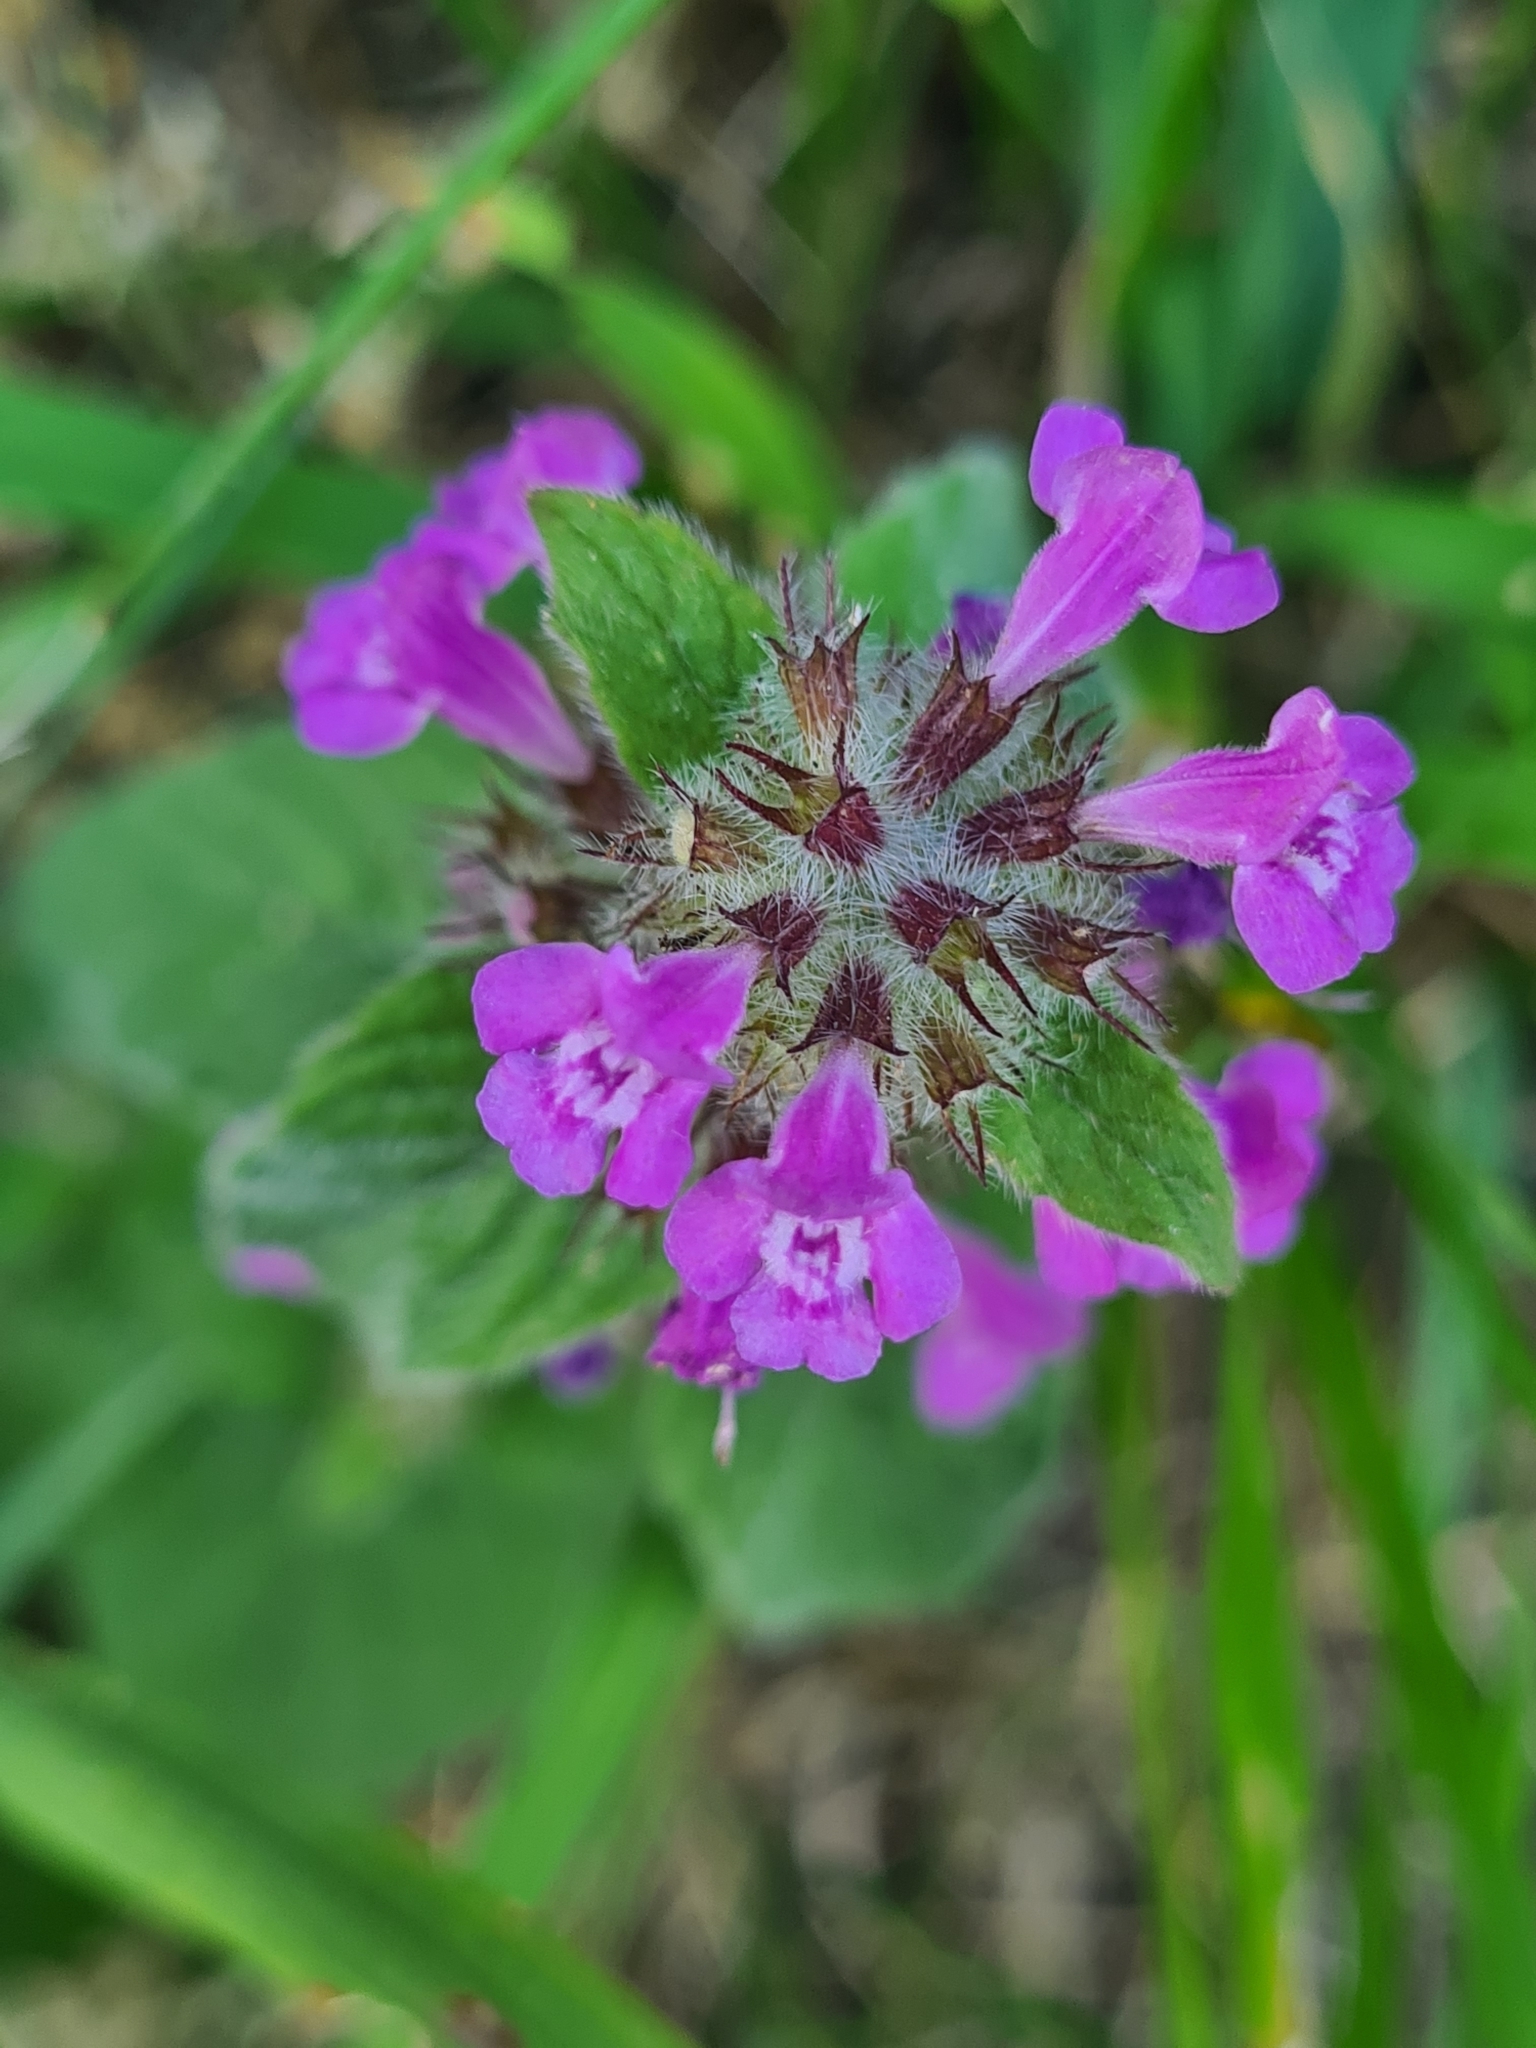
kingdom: Plantae
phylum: Tracheophyta
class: Magnoliopsida
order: Lamiales
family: Lamiaceae
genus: Clinopodium
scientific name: Clinopodium vulgare
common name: Wild basil
